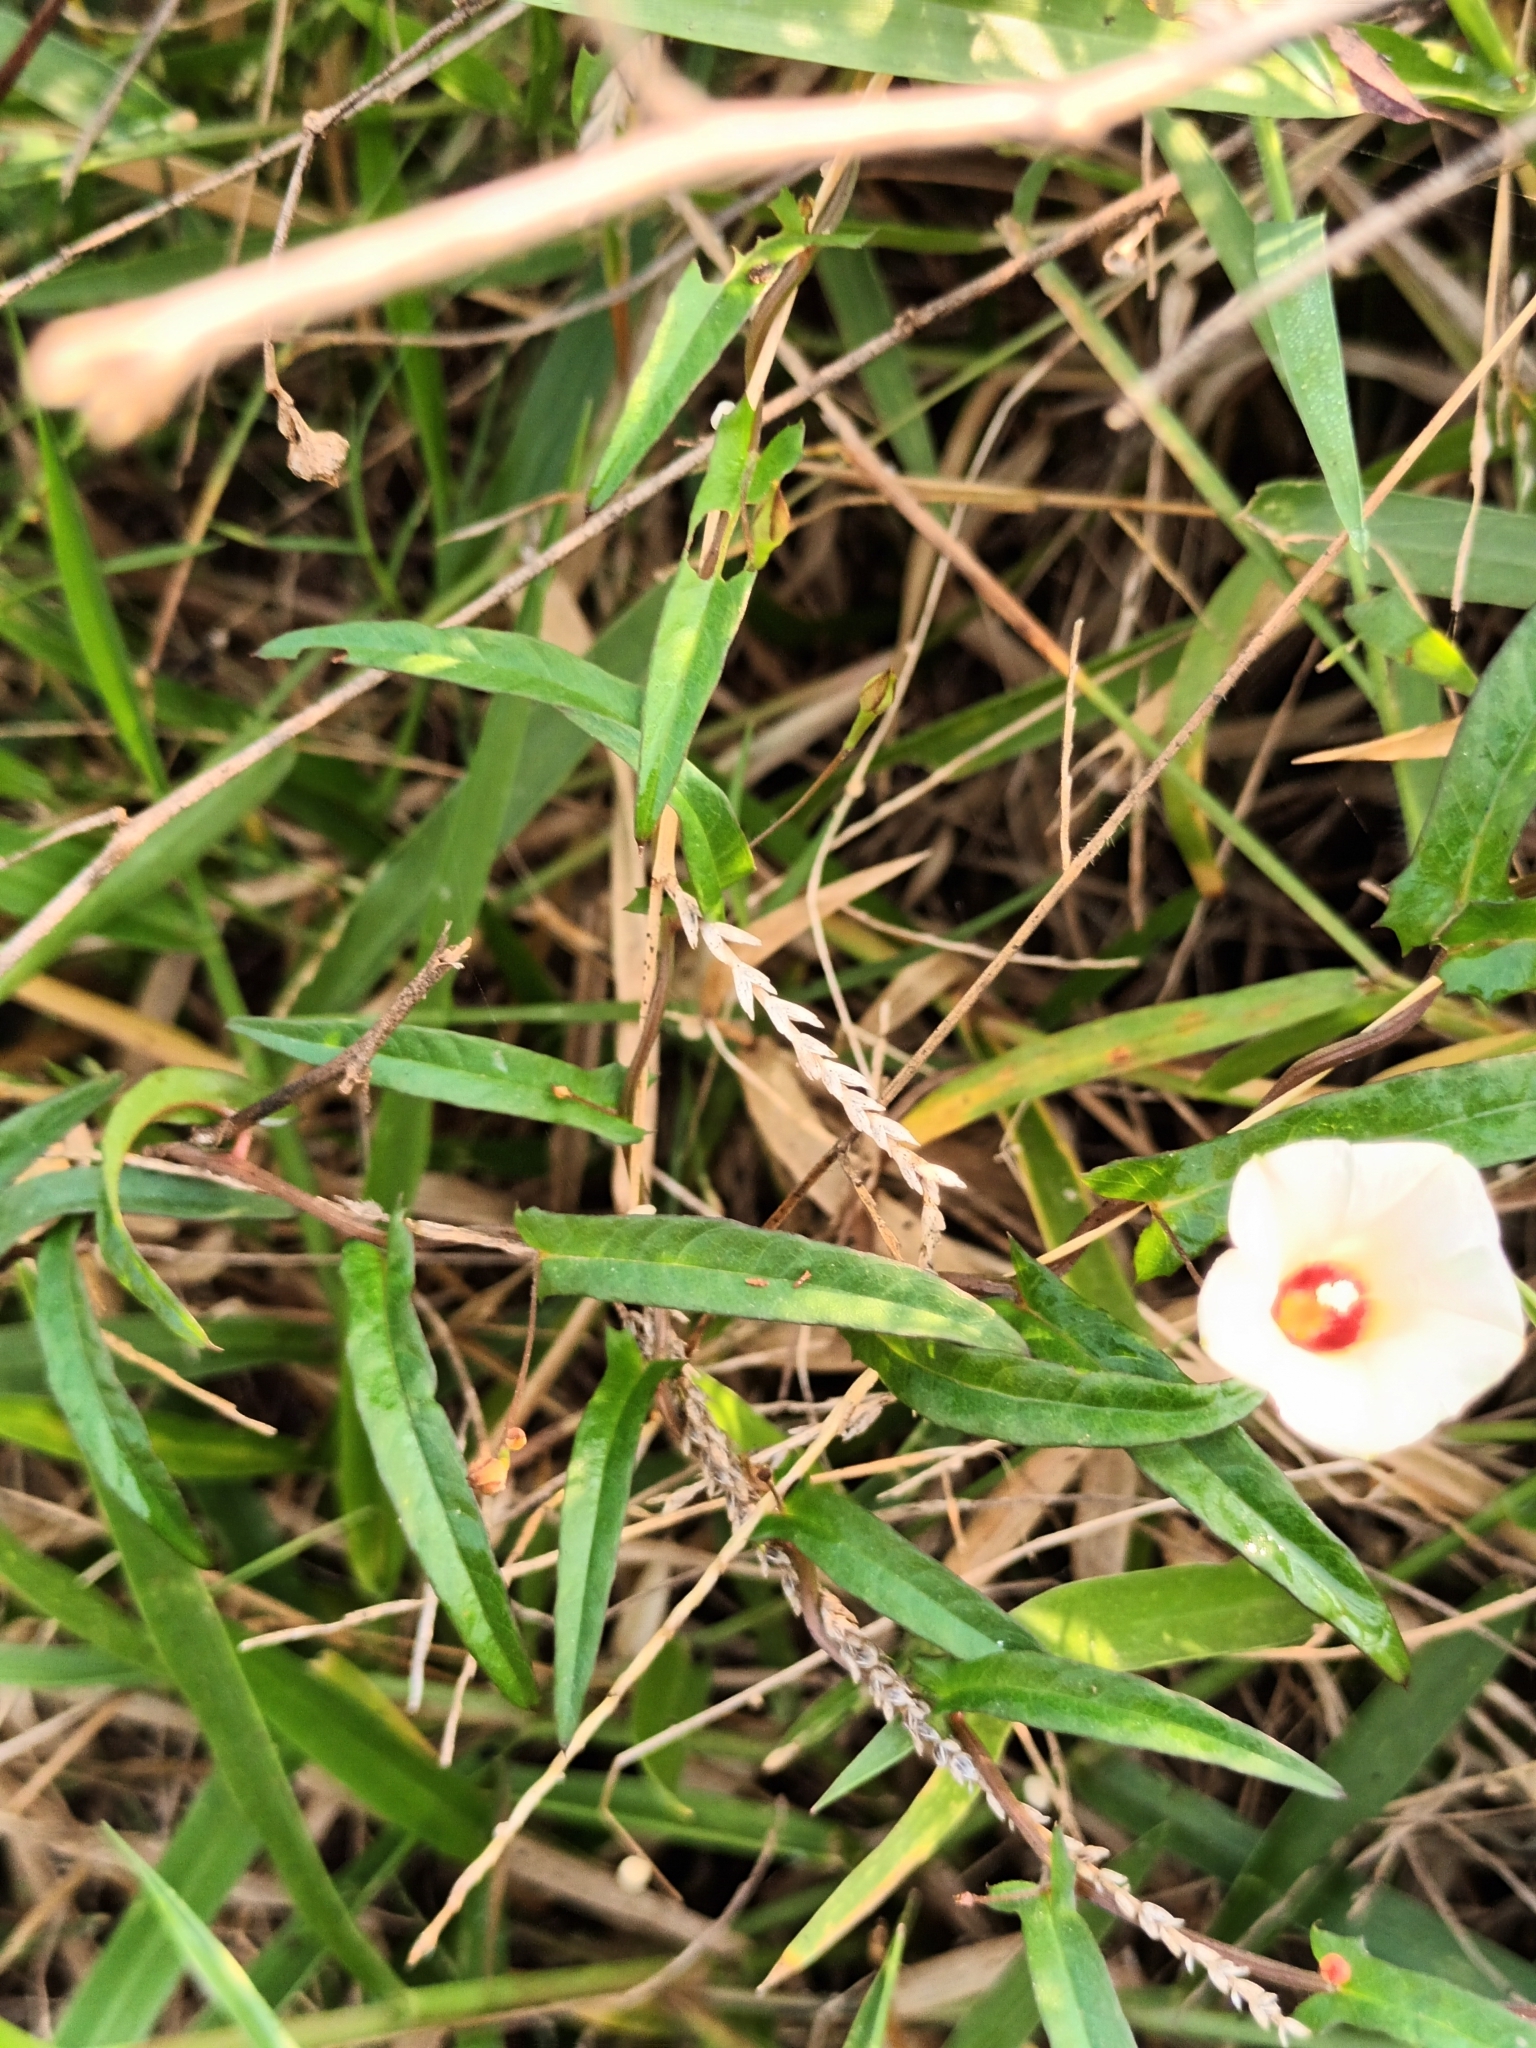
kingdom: Plantae
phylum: Tracheophyta
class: Magnoliopsida
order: Solanales
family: Convolvulaceae
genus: Xenostegia
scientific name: Xenostegia tridentata
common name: African morningvine
